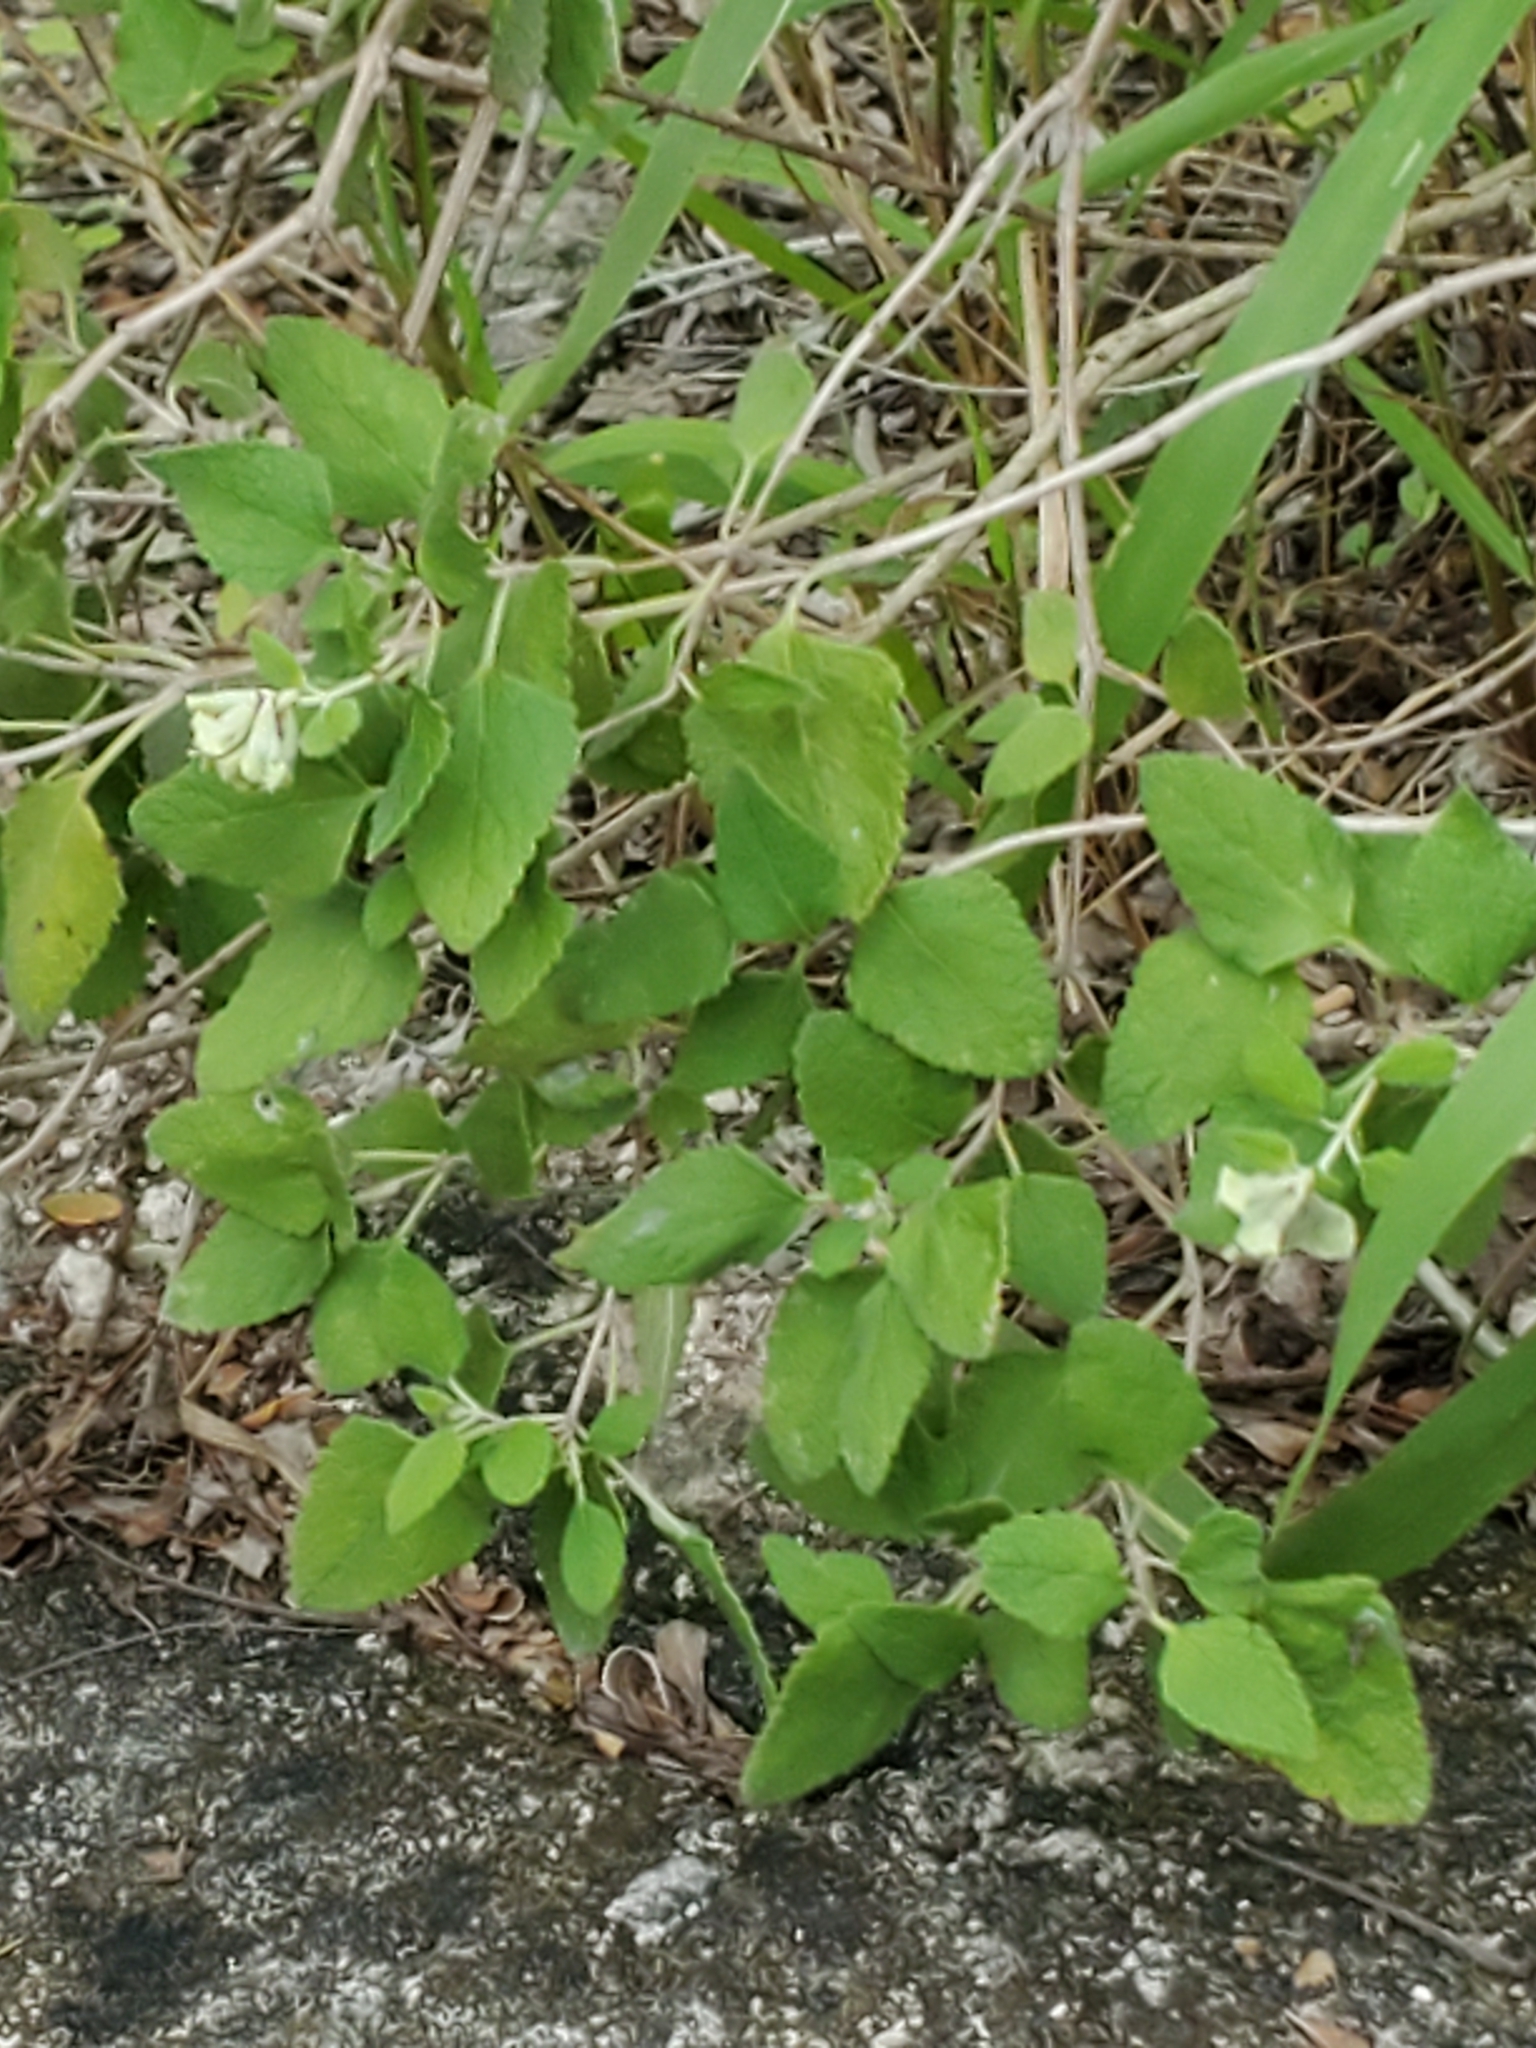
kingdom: Plantae
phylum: Tracheophyta
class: Magnoliopsida
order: Lamiales
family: Lamiaceae
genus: Salvia
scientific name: Salvia ballotiflora
